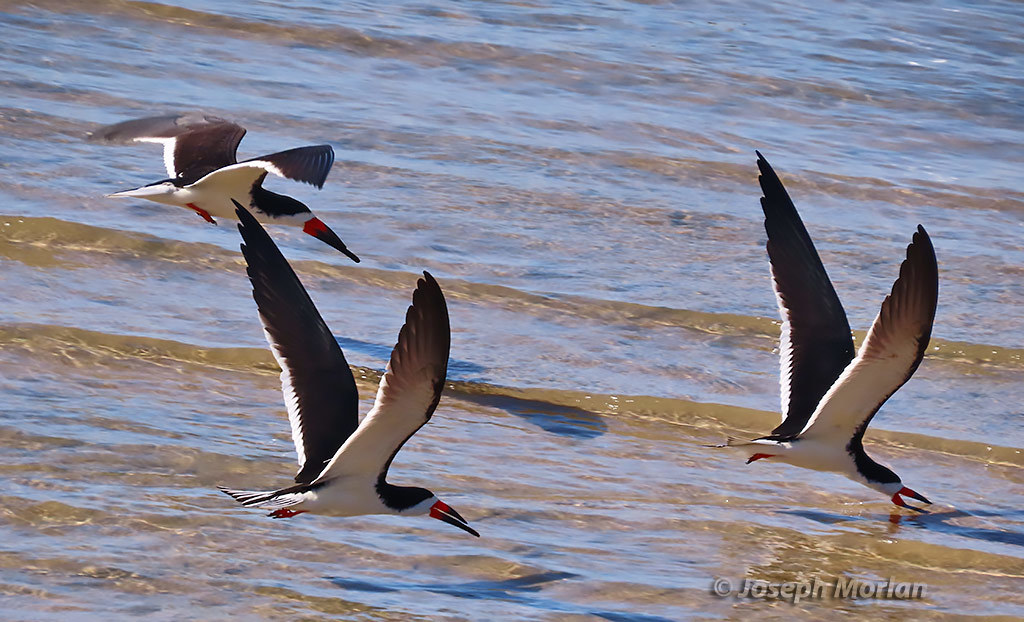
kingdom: Animalia
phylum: Chordata
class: Aves
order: Charadriiformes
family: Laridae
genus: Rynchops
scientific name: Rynchops niger
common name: Black skimmer
